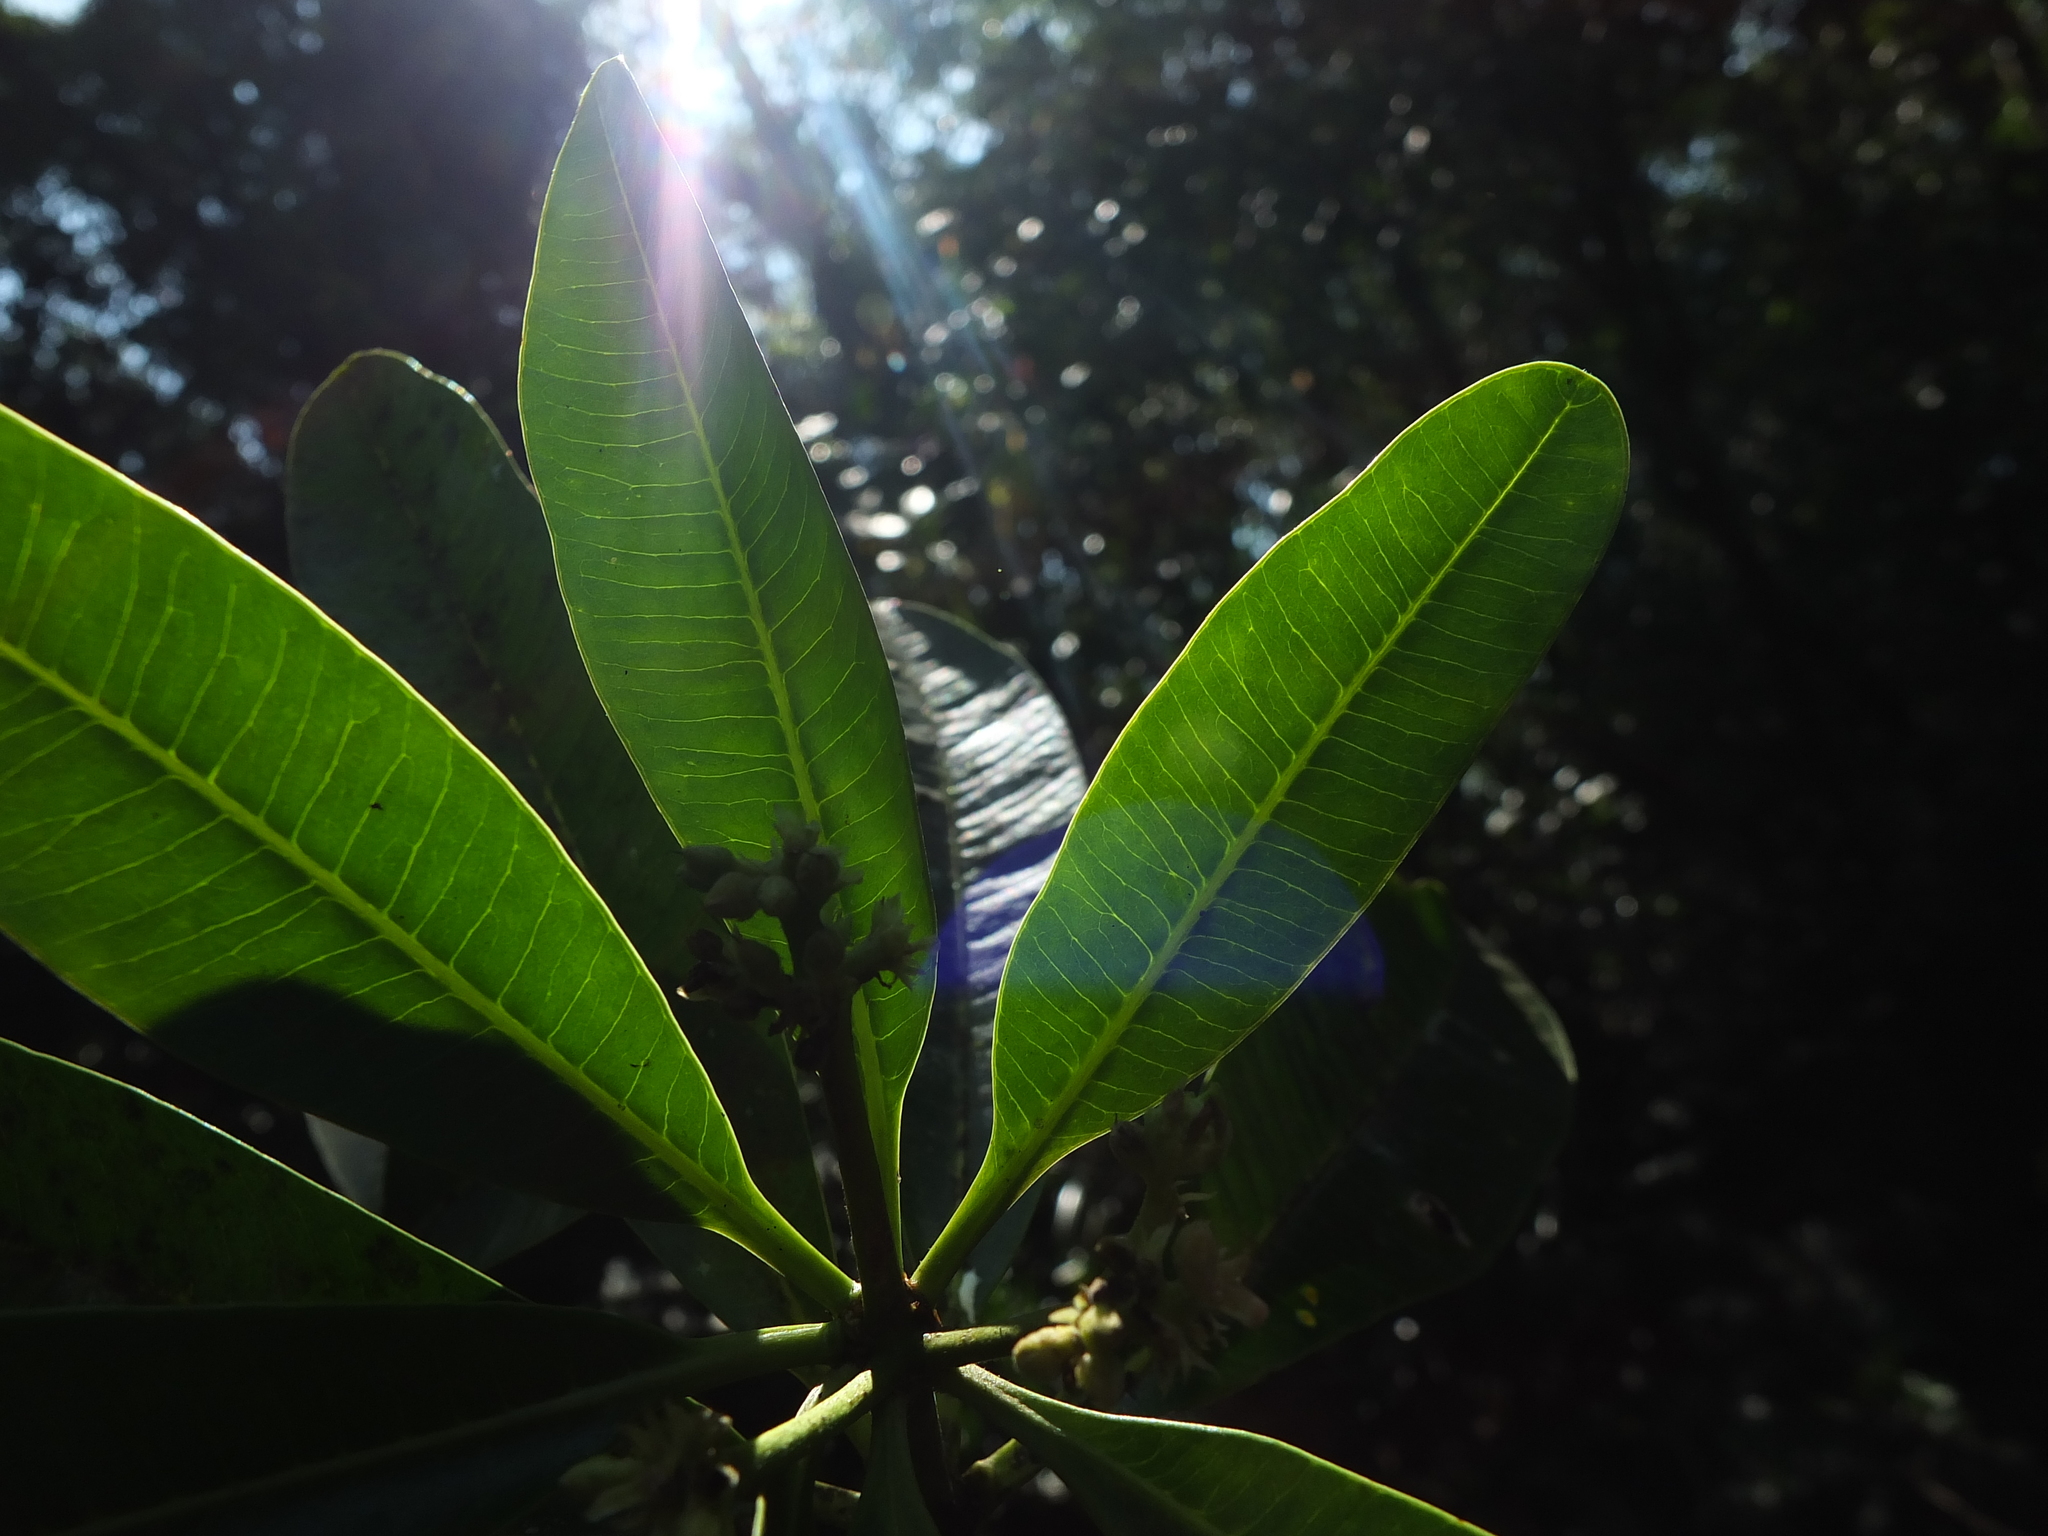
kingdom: Plantae
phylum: Tracheophyta
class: Magnoliopsida
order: Gentianales
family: Apocynaceae
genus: Alstonia
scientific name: Alstonia scholaris
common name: White cheesewood
